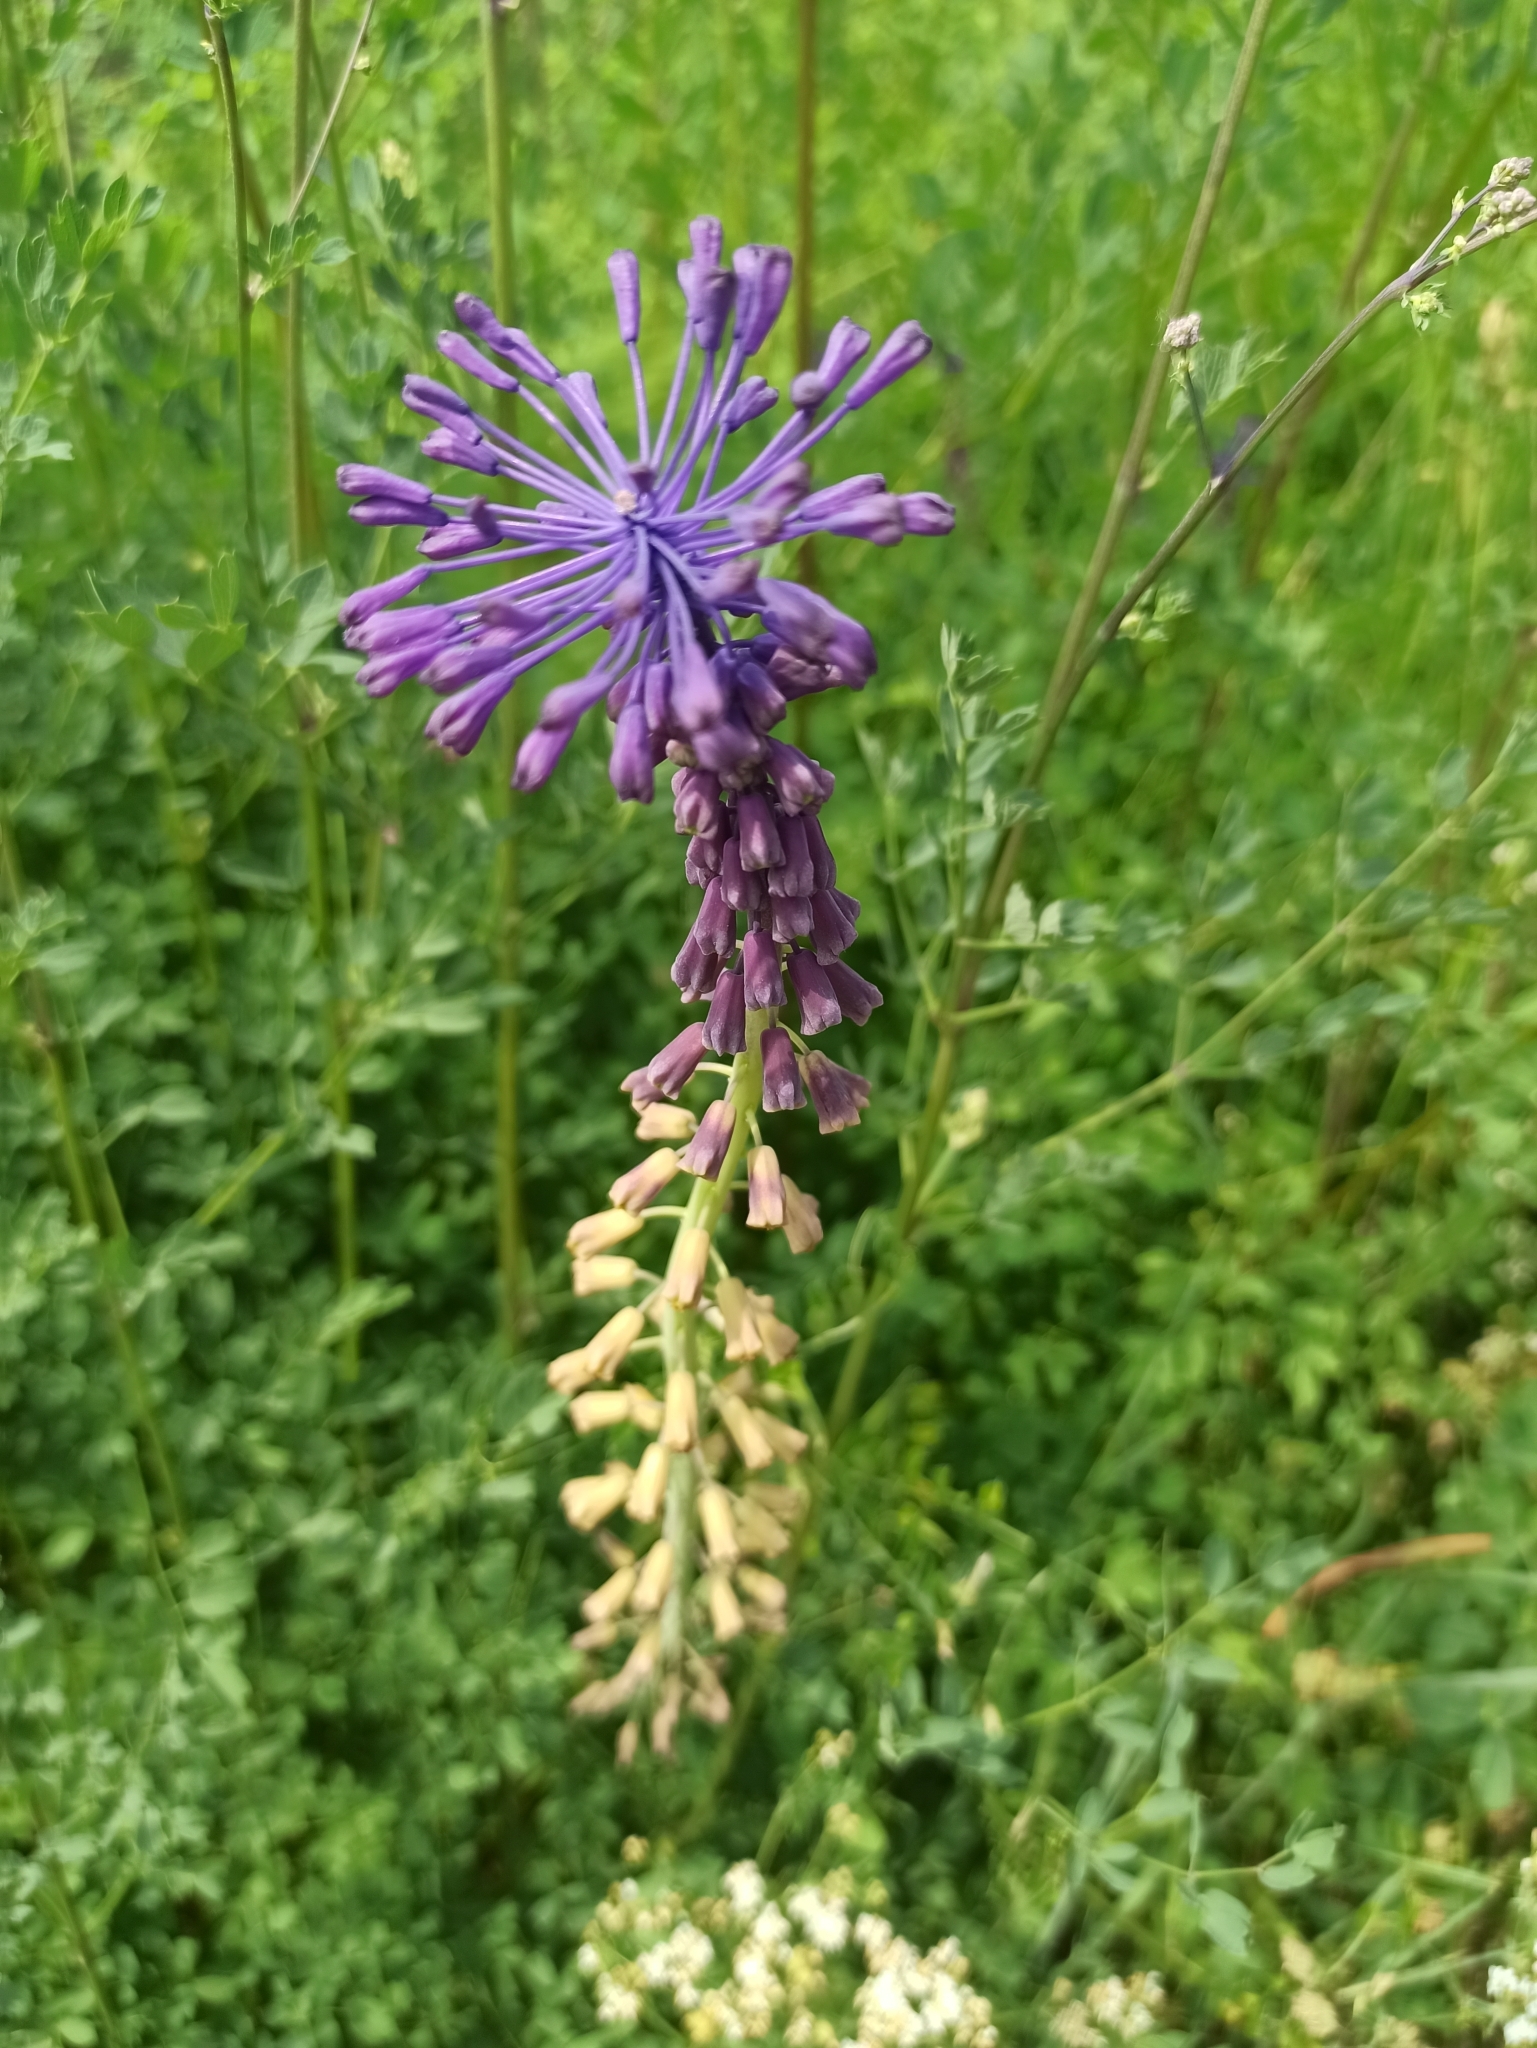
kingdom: Plantae
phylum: Tracheophyta
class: Liliopsida
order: Asparagales
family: Asparagaceae
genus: Muscari
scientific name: Muscari comosum
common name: Tassel hyacinth
